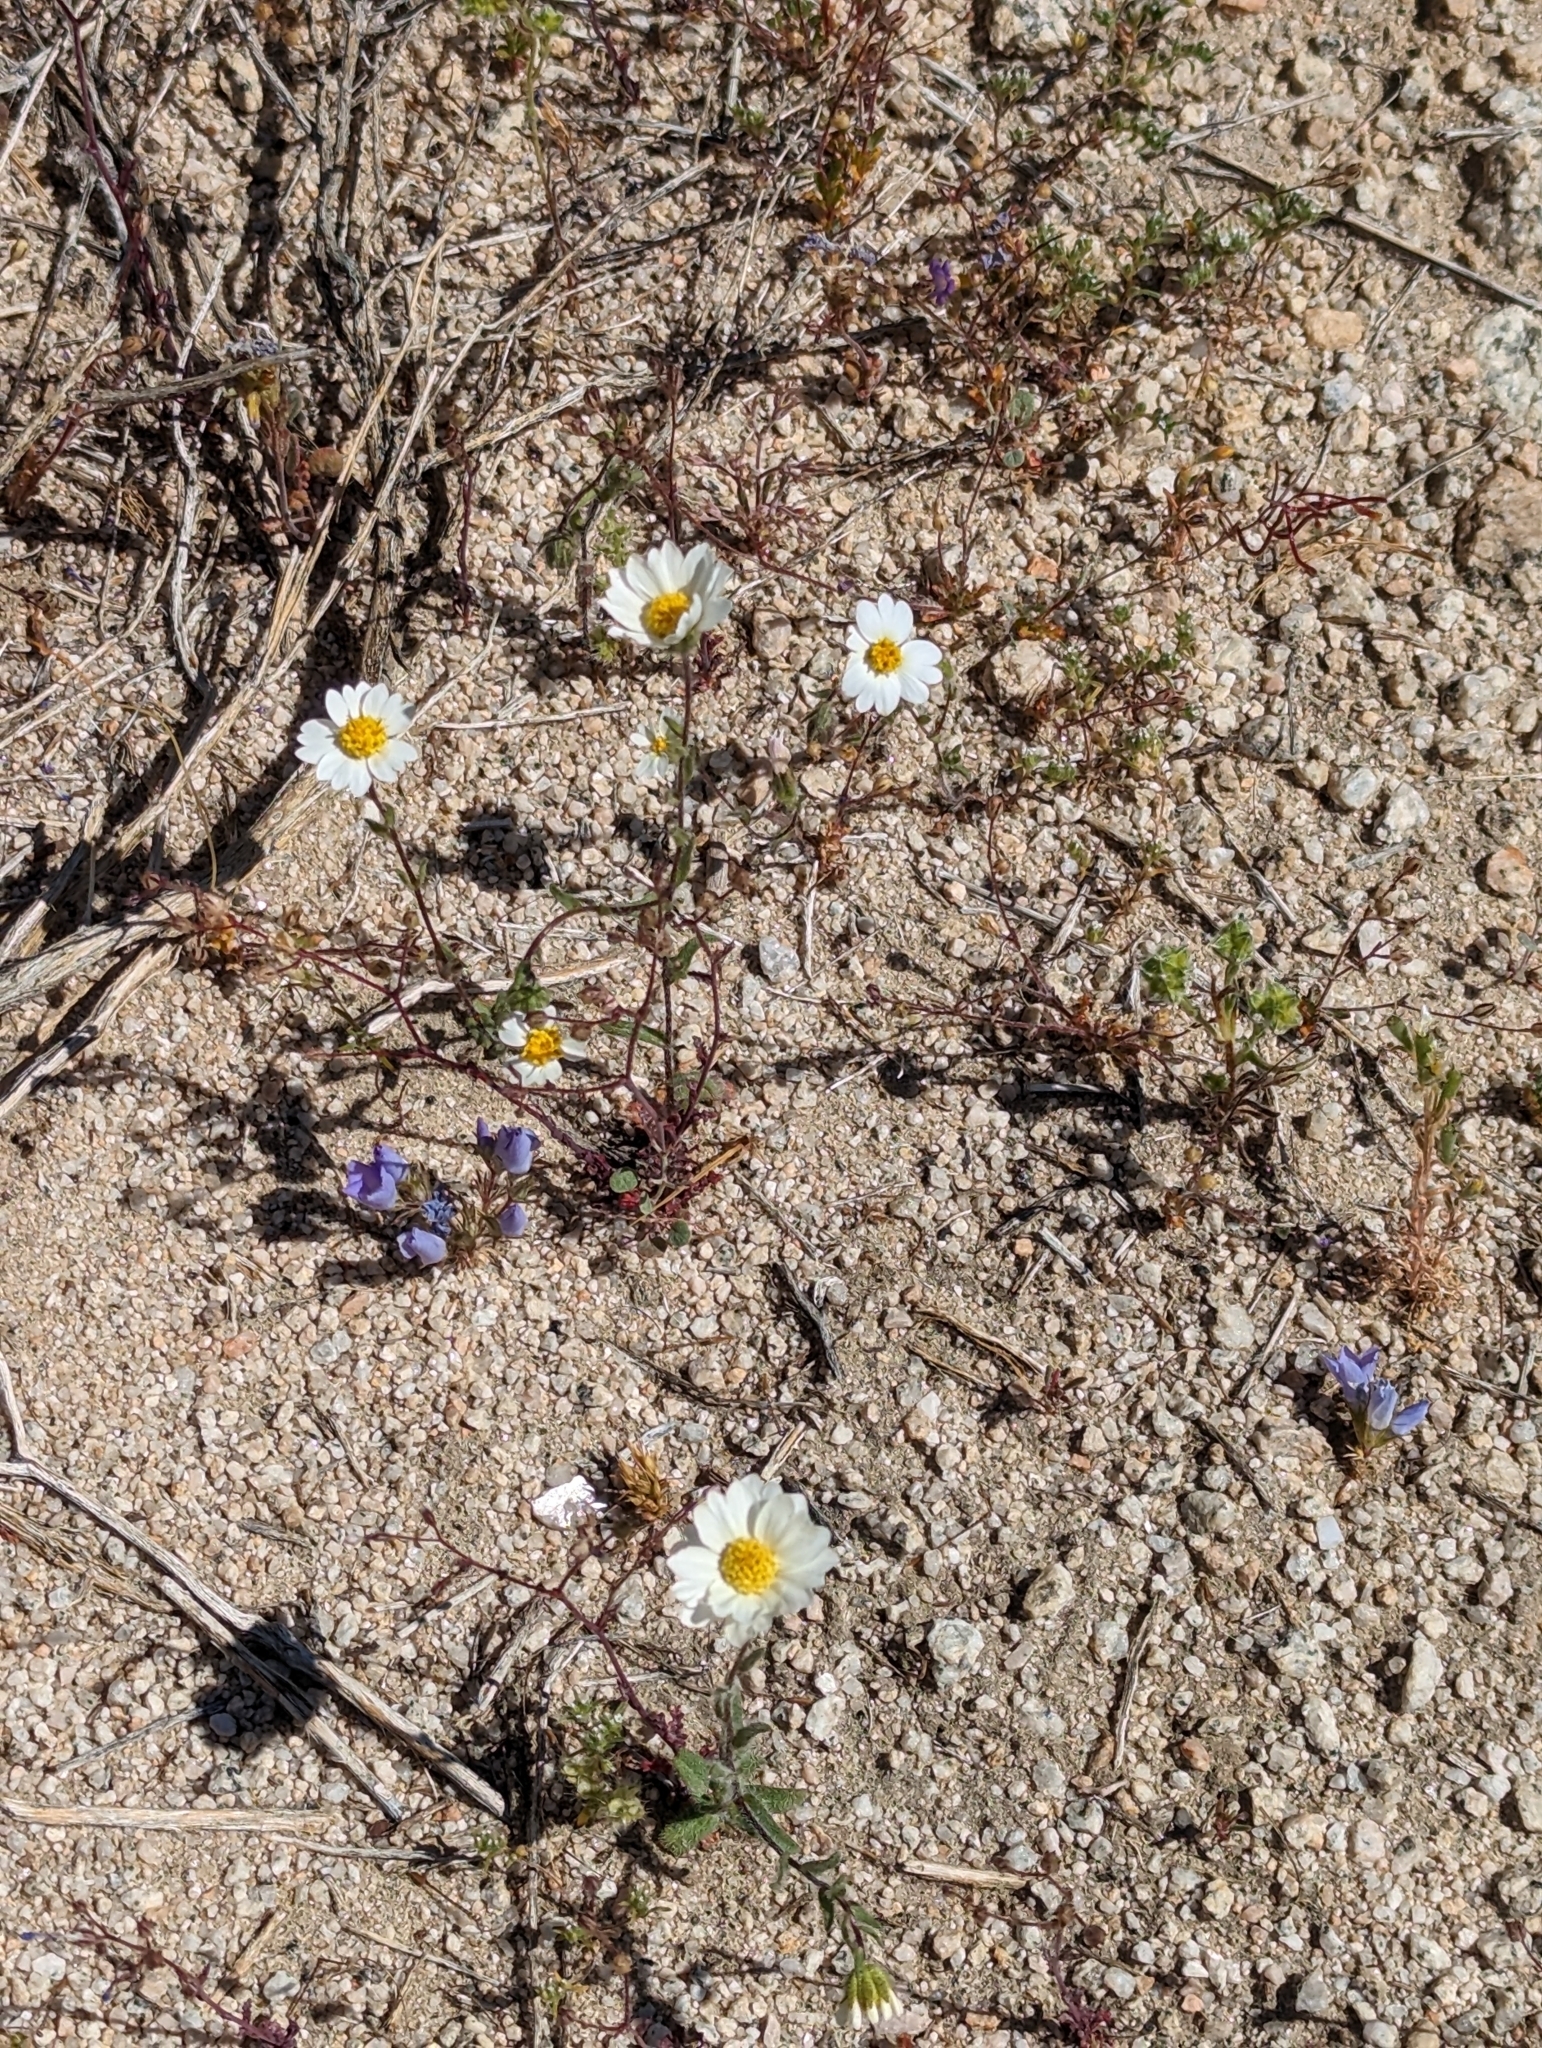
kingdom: Plantae
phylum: Tracheophyta
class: Magnoliopsida
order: Asterales
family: Asteraceae
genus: Layia
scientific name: Layia glandulosa
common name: White layia
